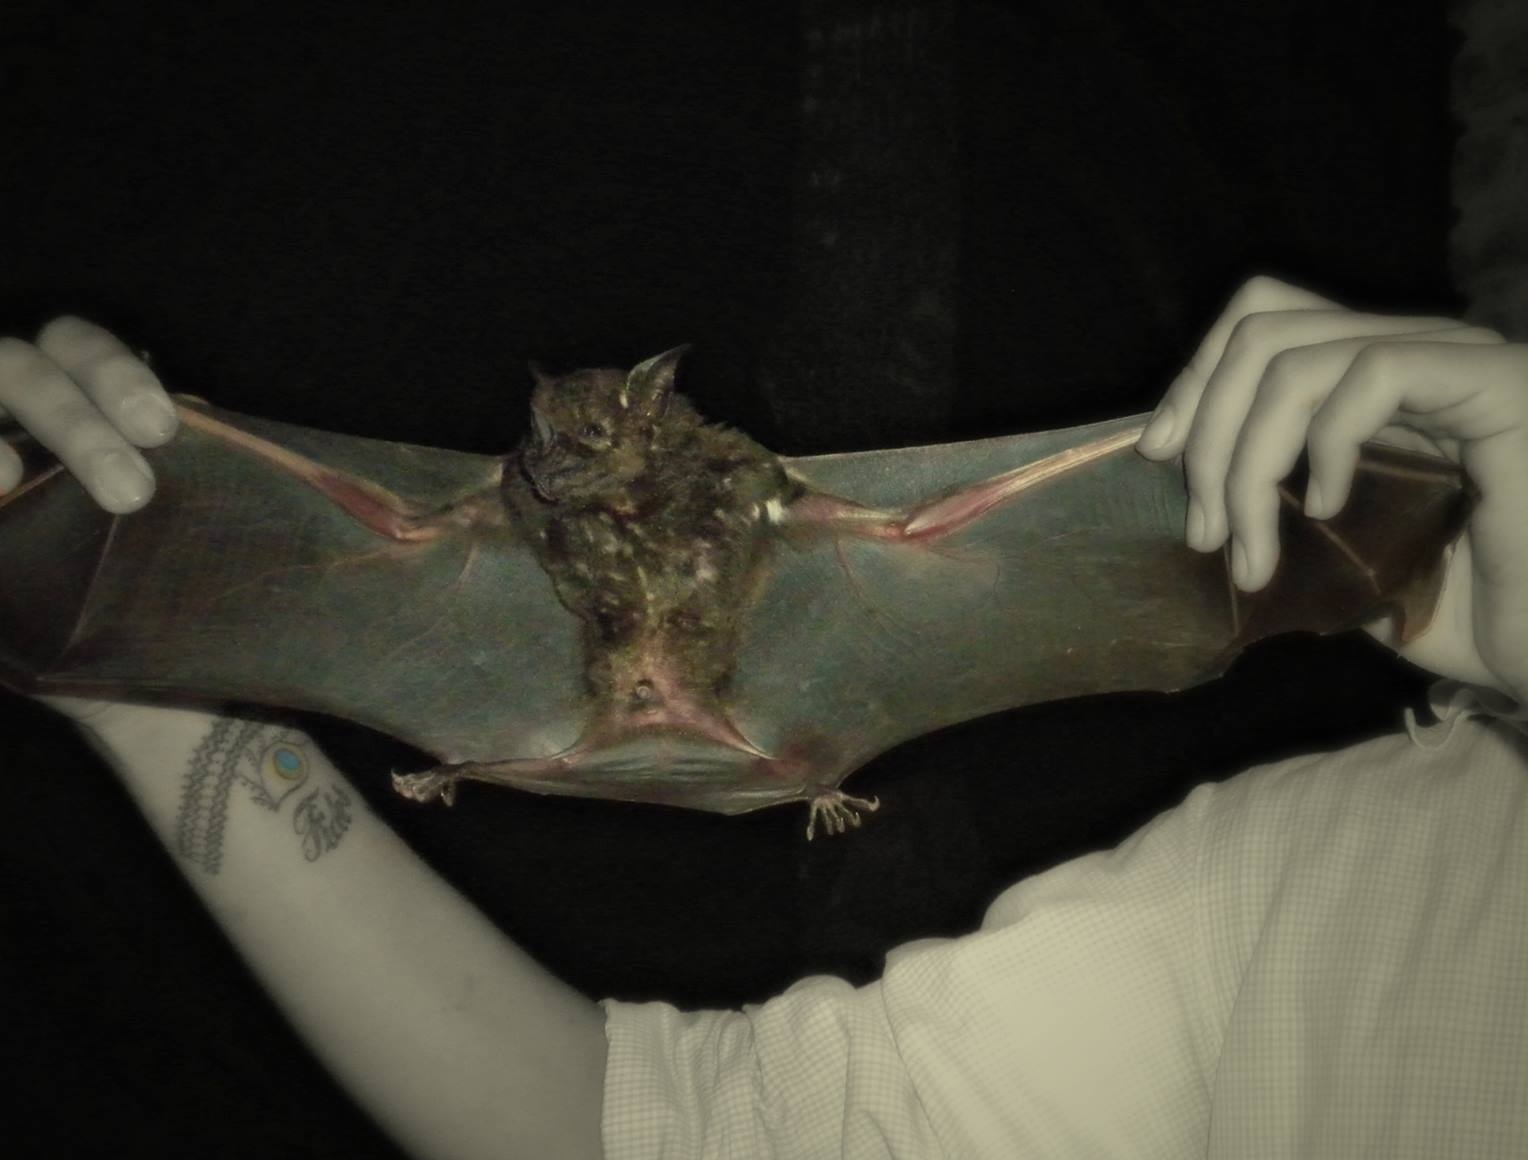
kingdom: Animalia
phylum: Chordata
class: Mammalia
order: Chiroptera
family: Phyllostomidae
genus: Phyllostomus
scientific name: Phyllostomus hastatus
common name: Greater spear-nosed bat
